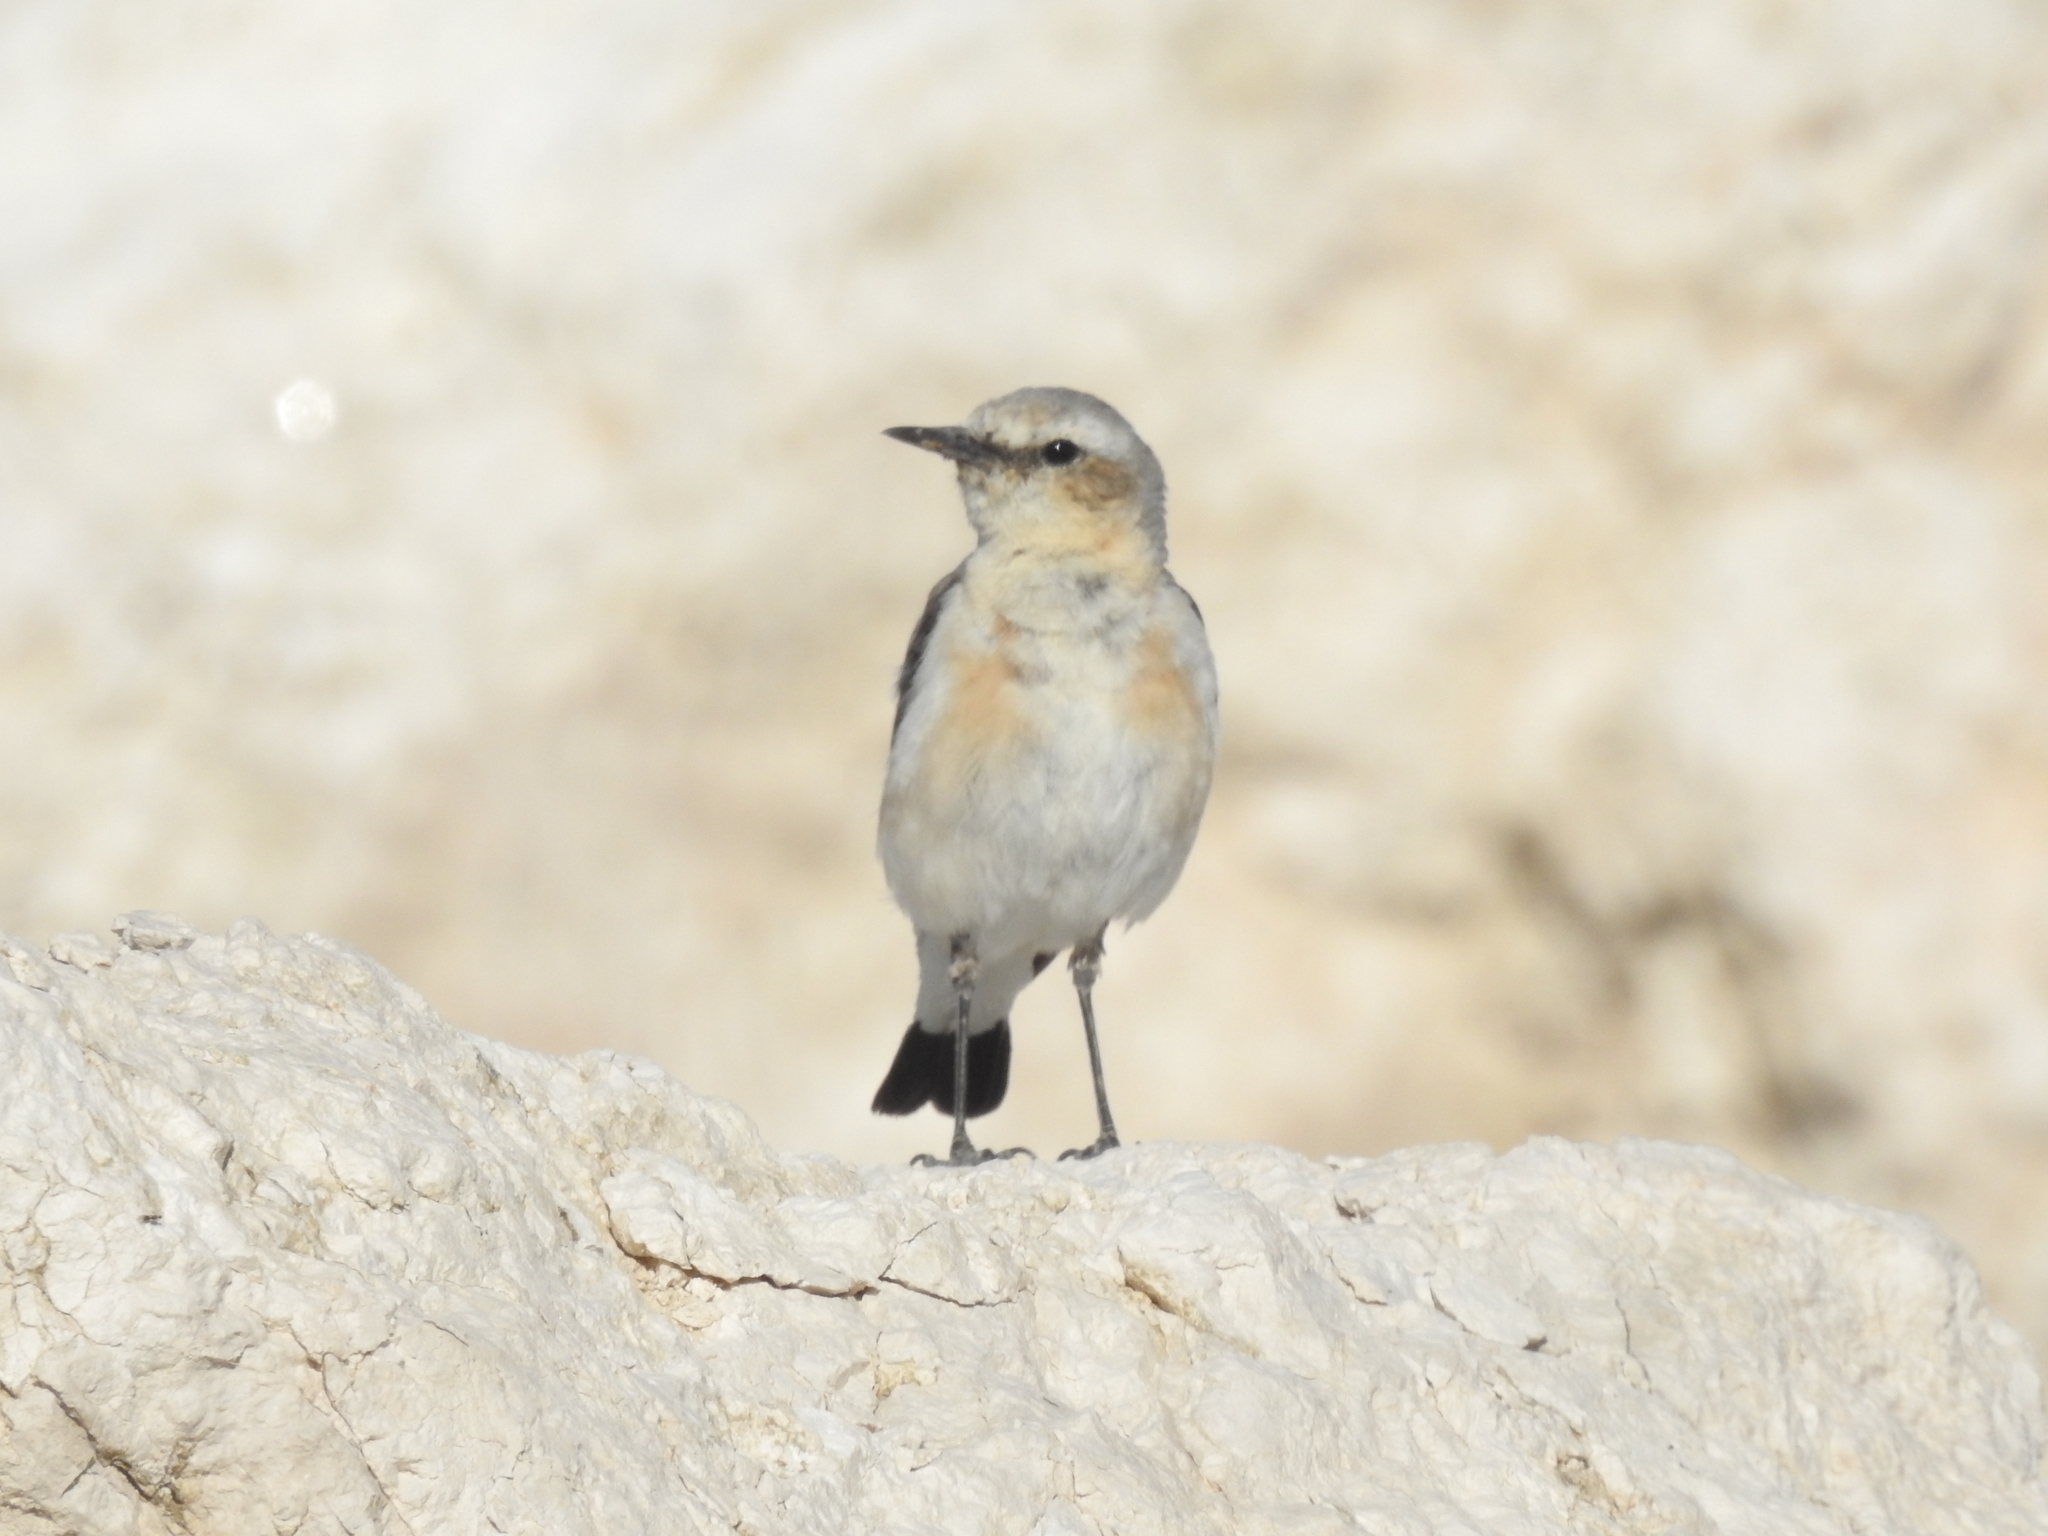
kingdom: Animalia
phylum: Chordata
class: Aves
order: Passeriformes
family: Muscicapidae
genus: Oenanthe
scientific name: Oenanthe oenanthe
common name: Northern wheatear
